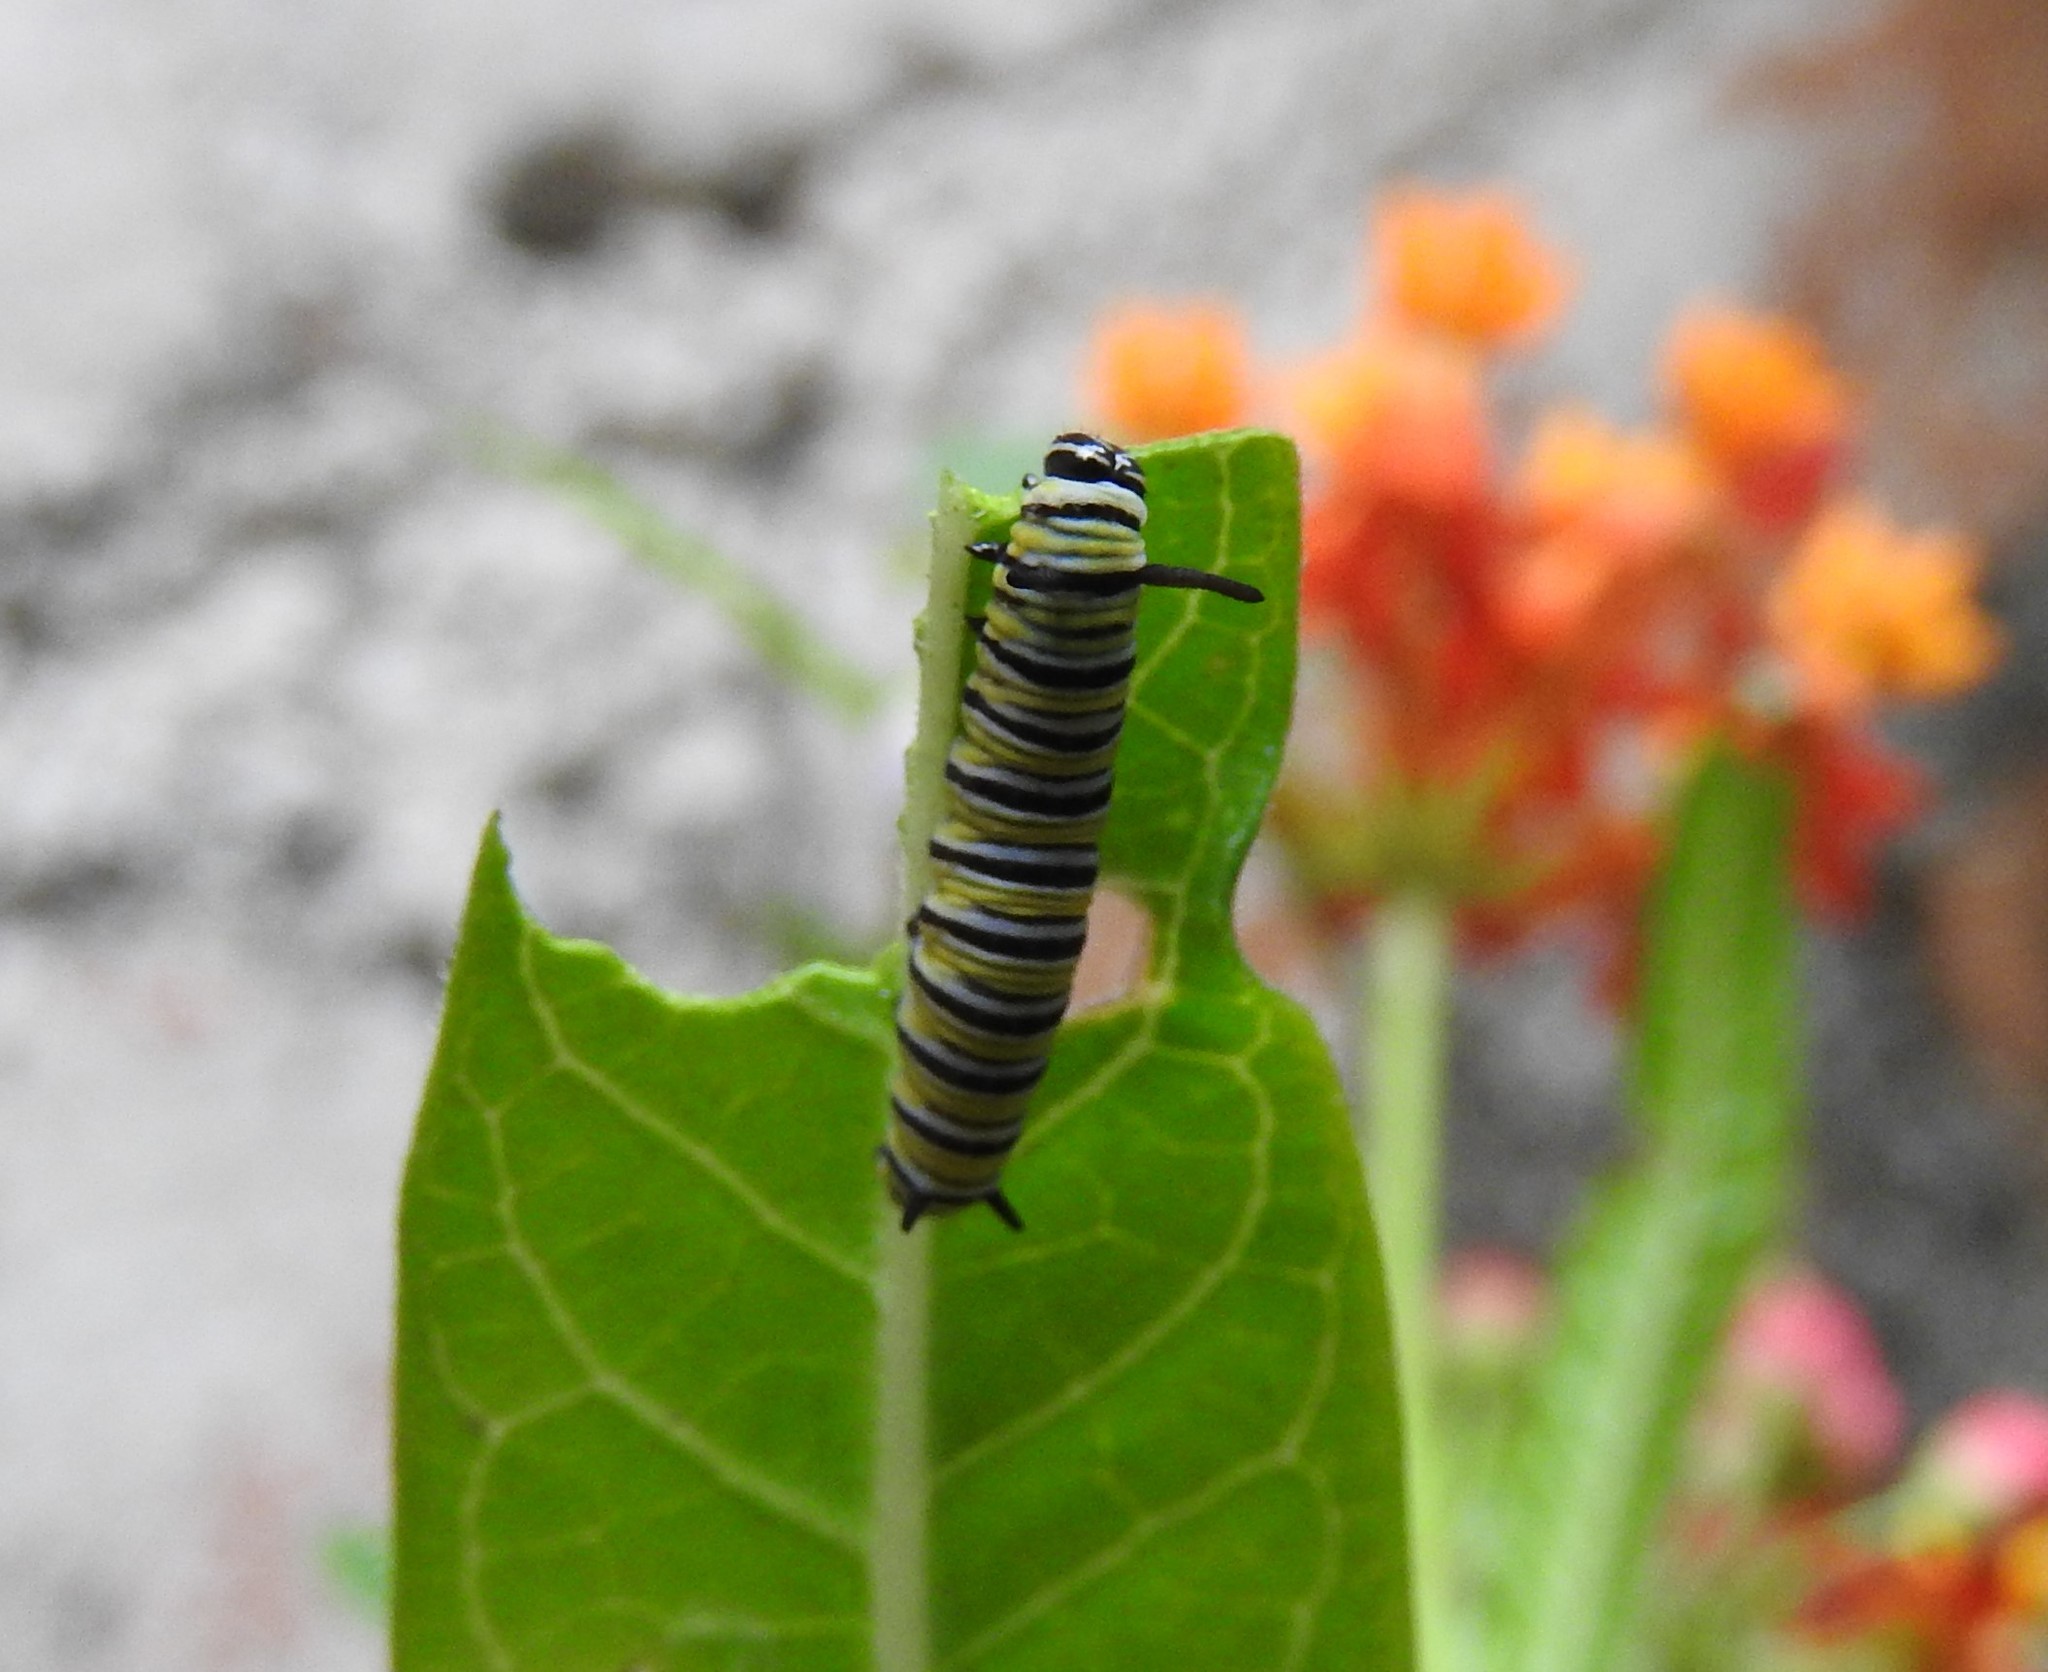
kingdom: Animalia
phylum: Arthropoda
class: Insecta
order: Lepidoptera
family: Nymphalidae
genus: Danaus
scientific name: Danaus plexippus
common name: Monarch
